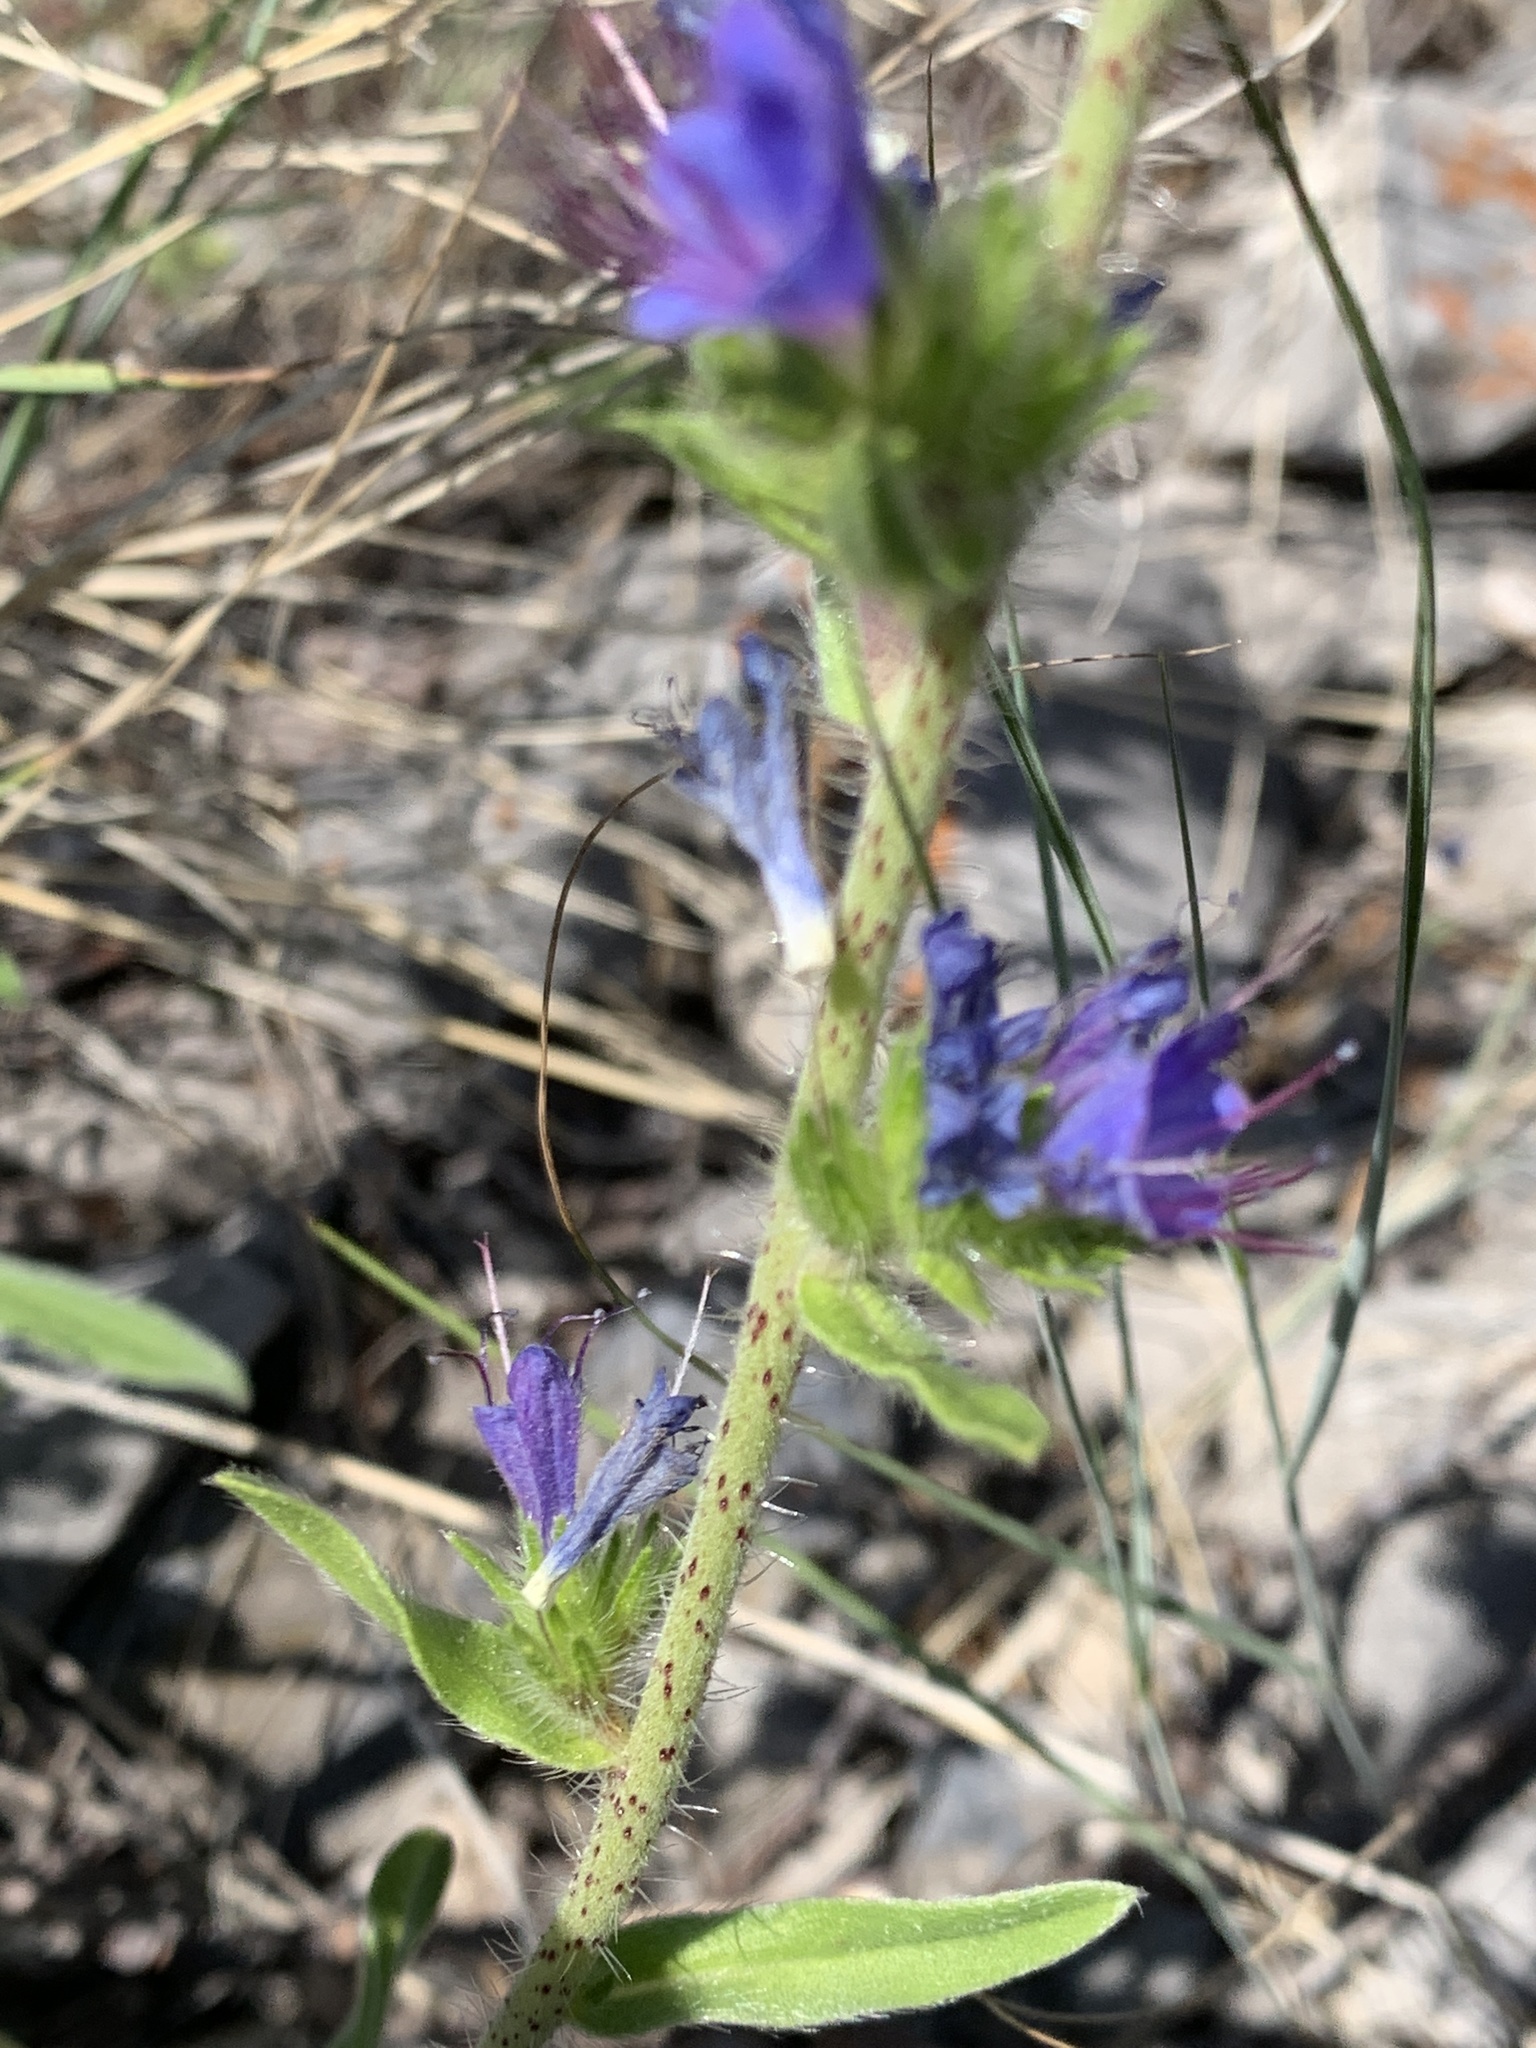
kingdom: Plantae
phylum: Tracheophyta
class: Magnoliopsida
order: Boraginales
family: Boraginaceae
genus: Echium
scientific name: Echium vulgare
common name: Common viper's bugloss
